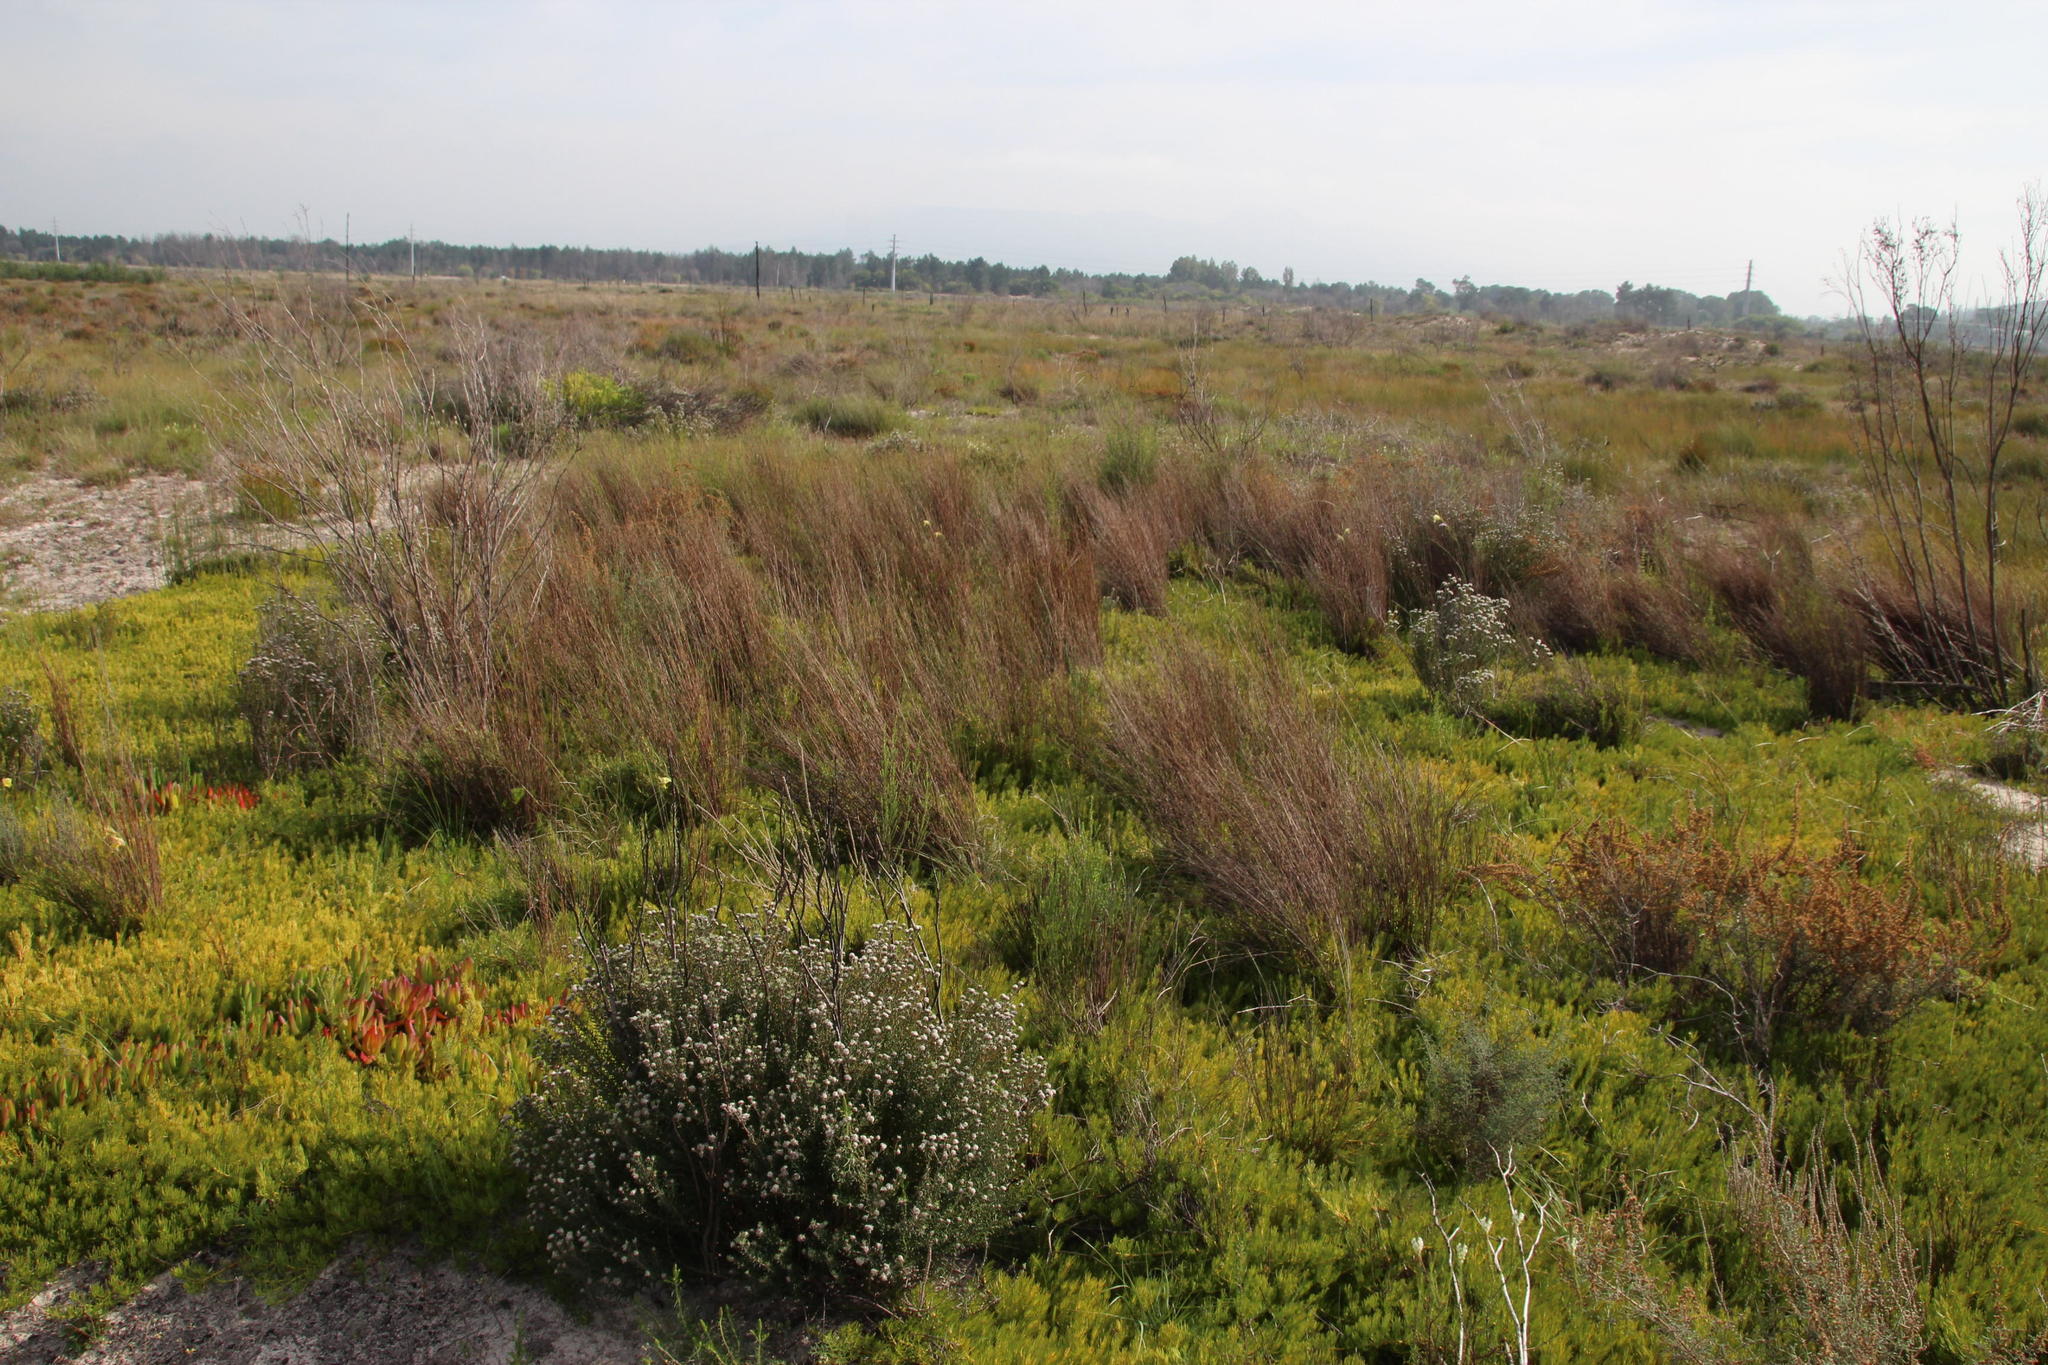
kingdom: Plantae
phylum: Tracheophyta
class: Liliopsida
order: Asparagales
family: Iridaceae
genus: Gladiolus
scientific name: Gladiolus carinatus
